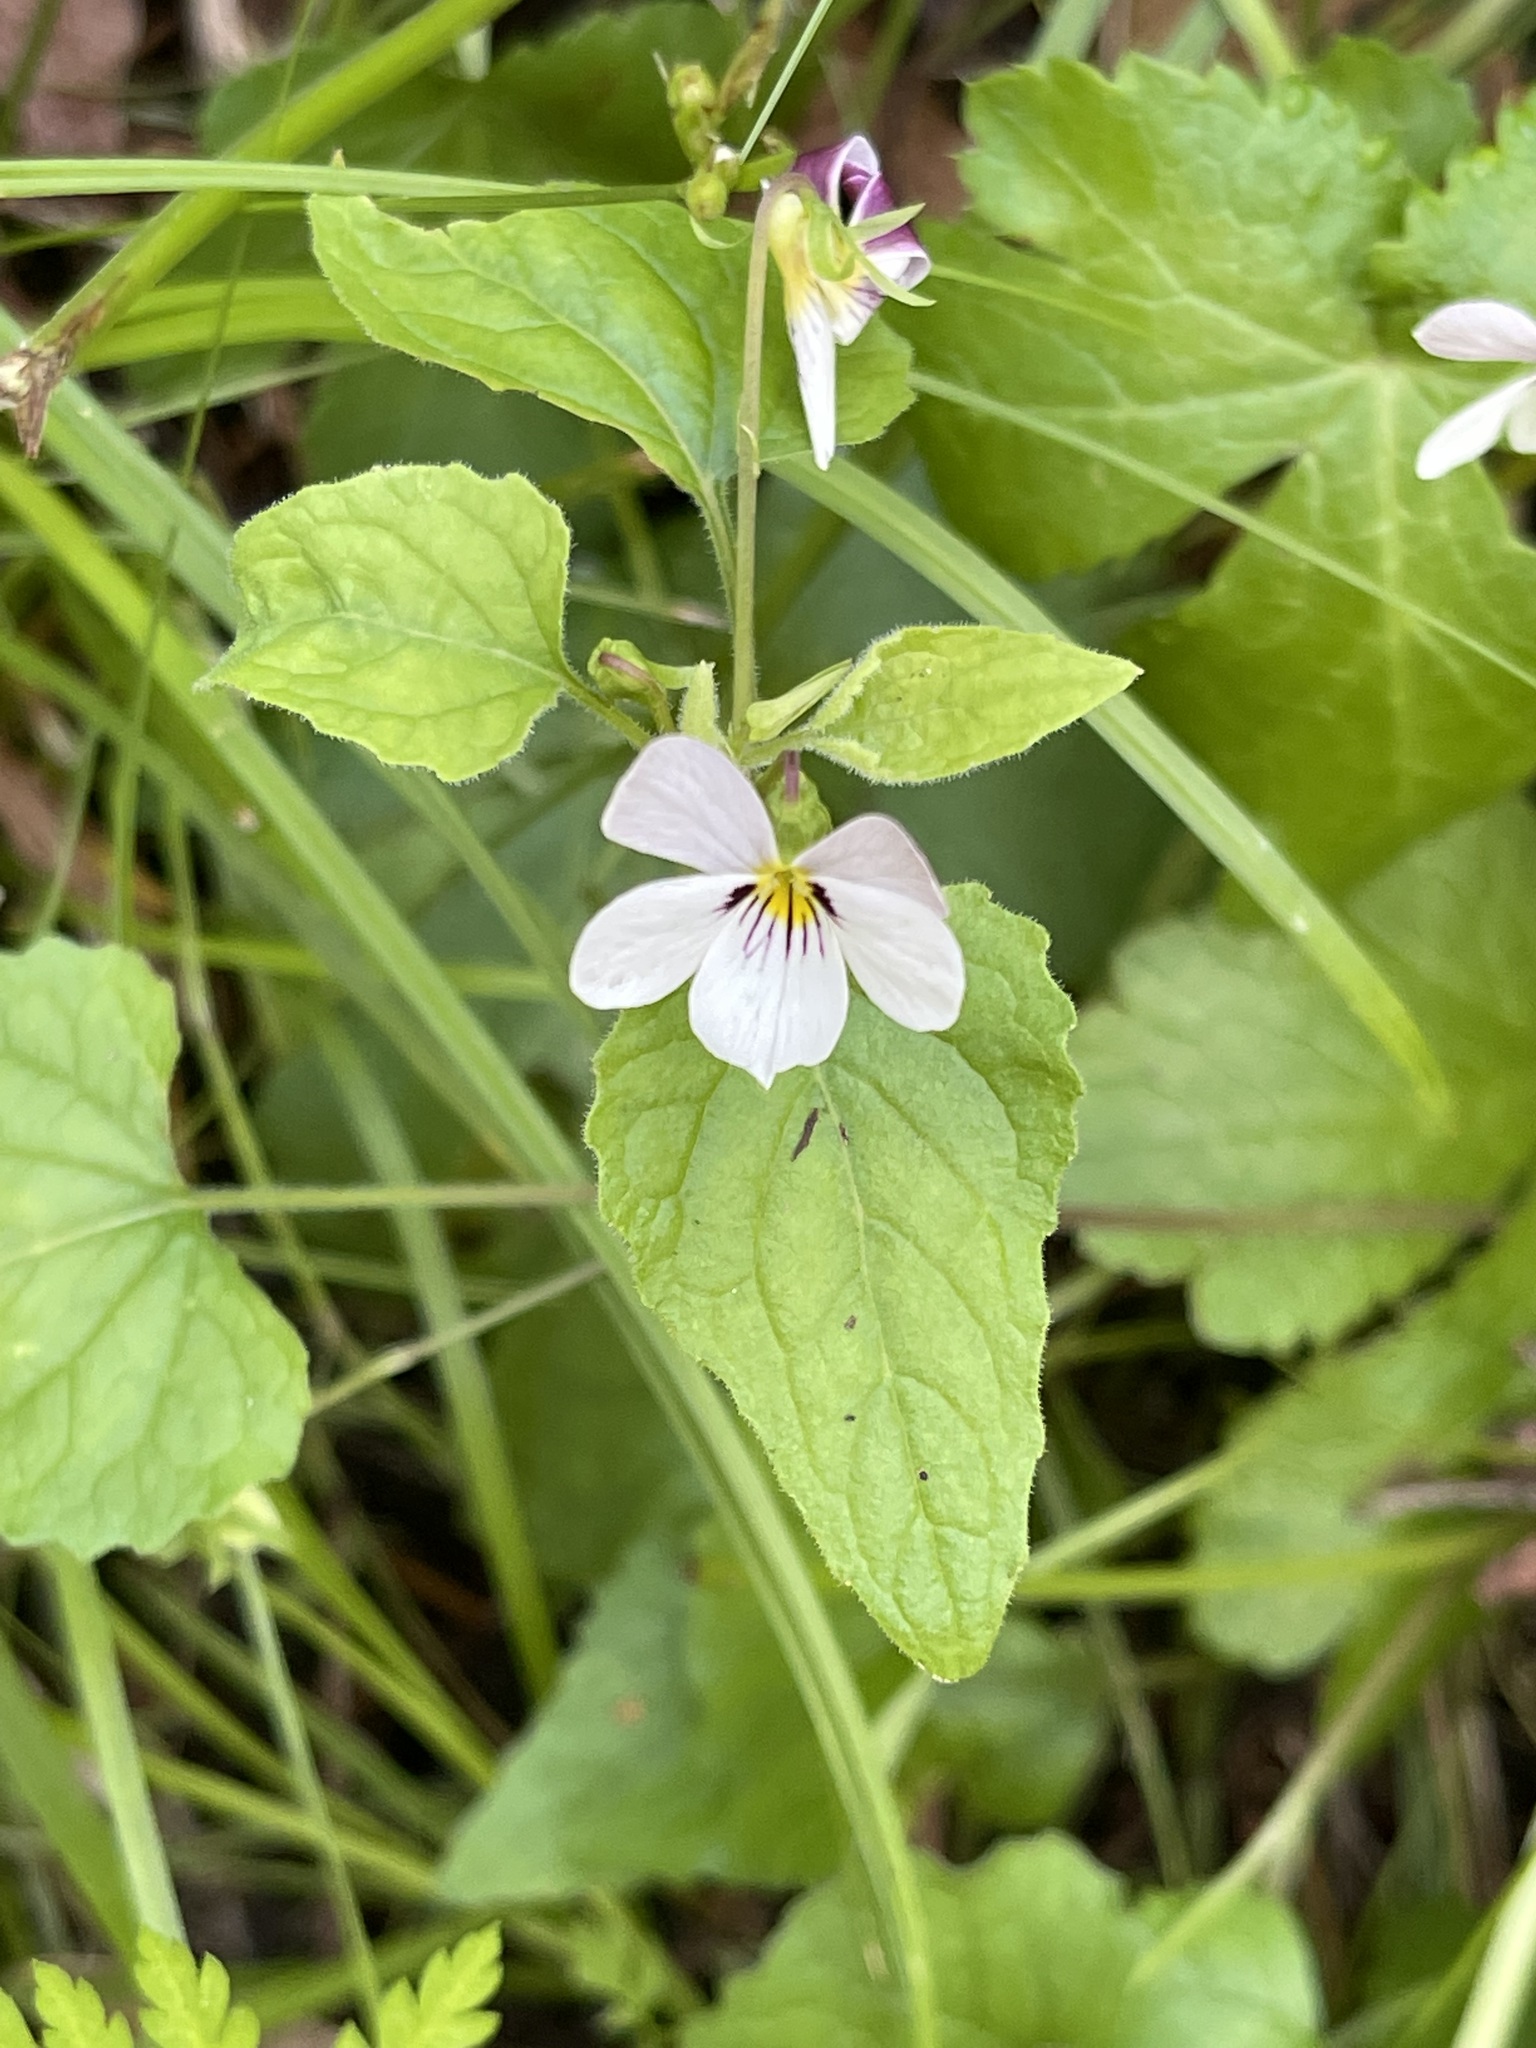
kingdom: Plantae
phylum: Tracheophyta
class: Magnoliopsida
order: Malpighiales
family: Violaceae
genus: Viola
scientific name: Viola ocellata
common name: Western heart's ease
